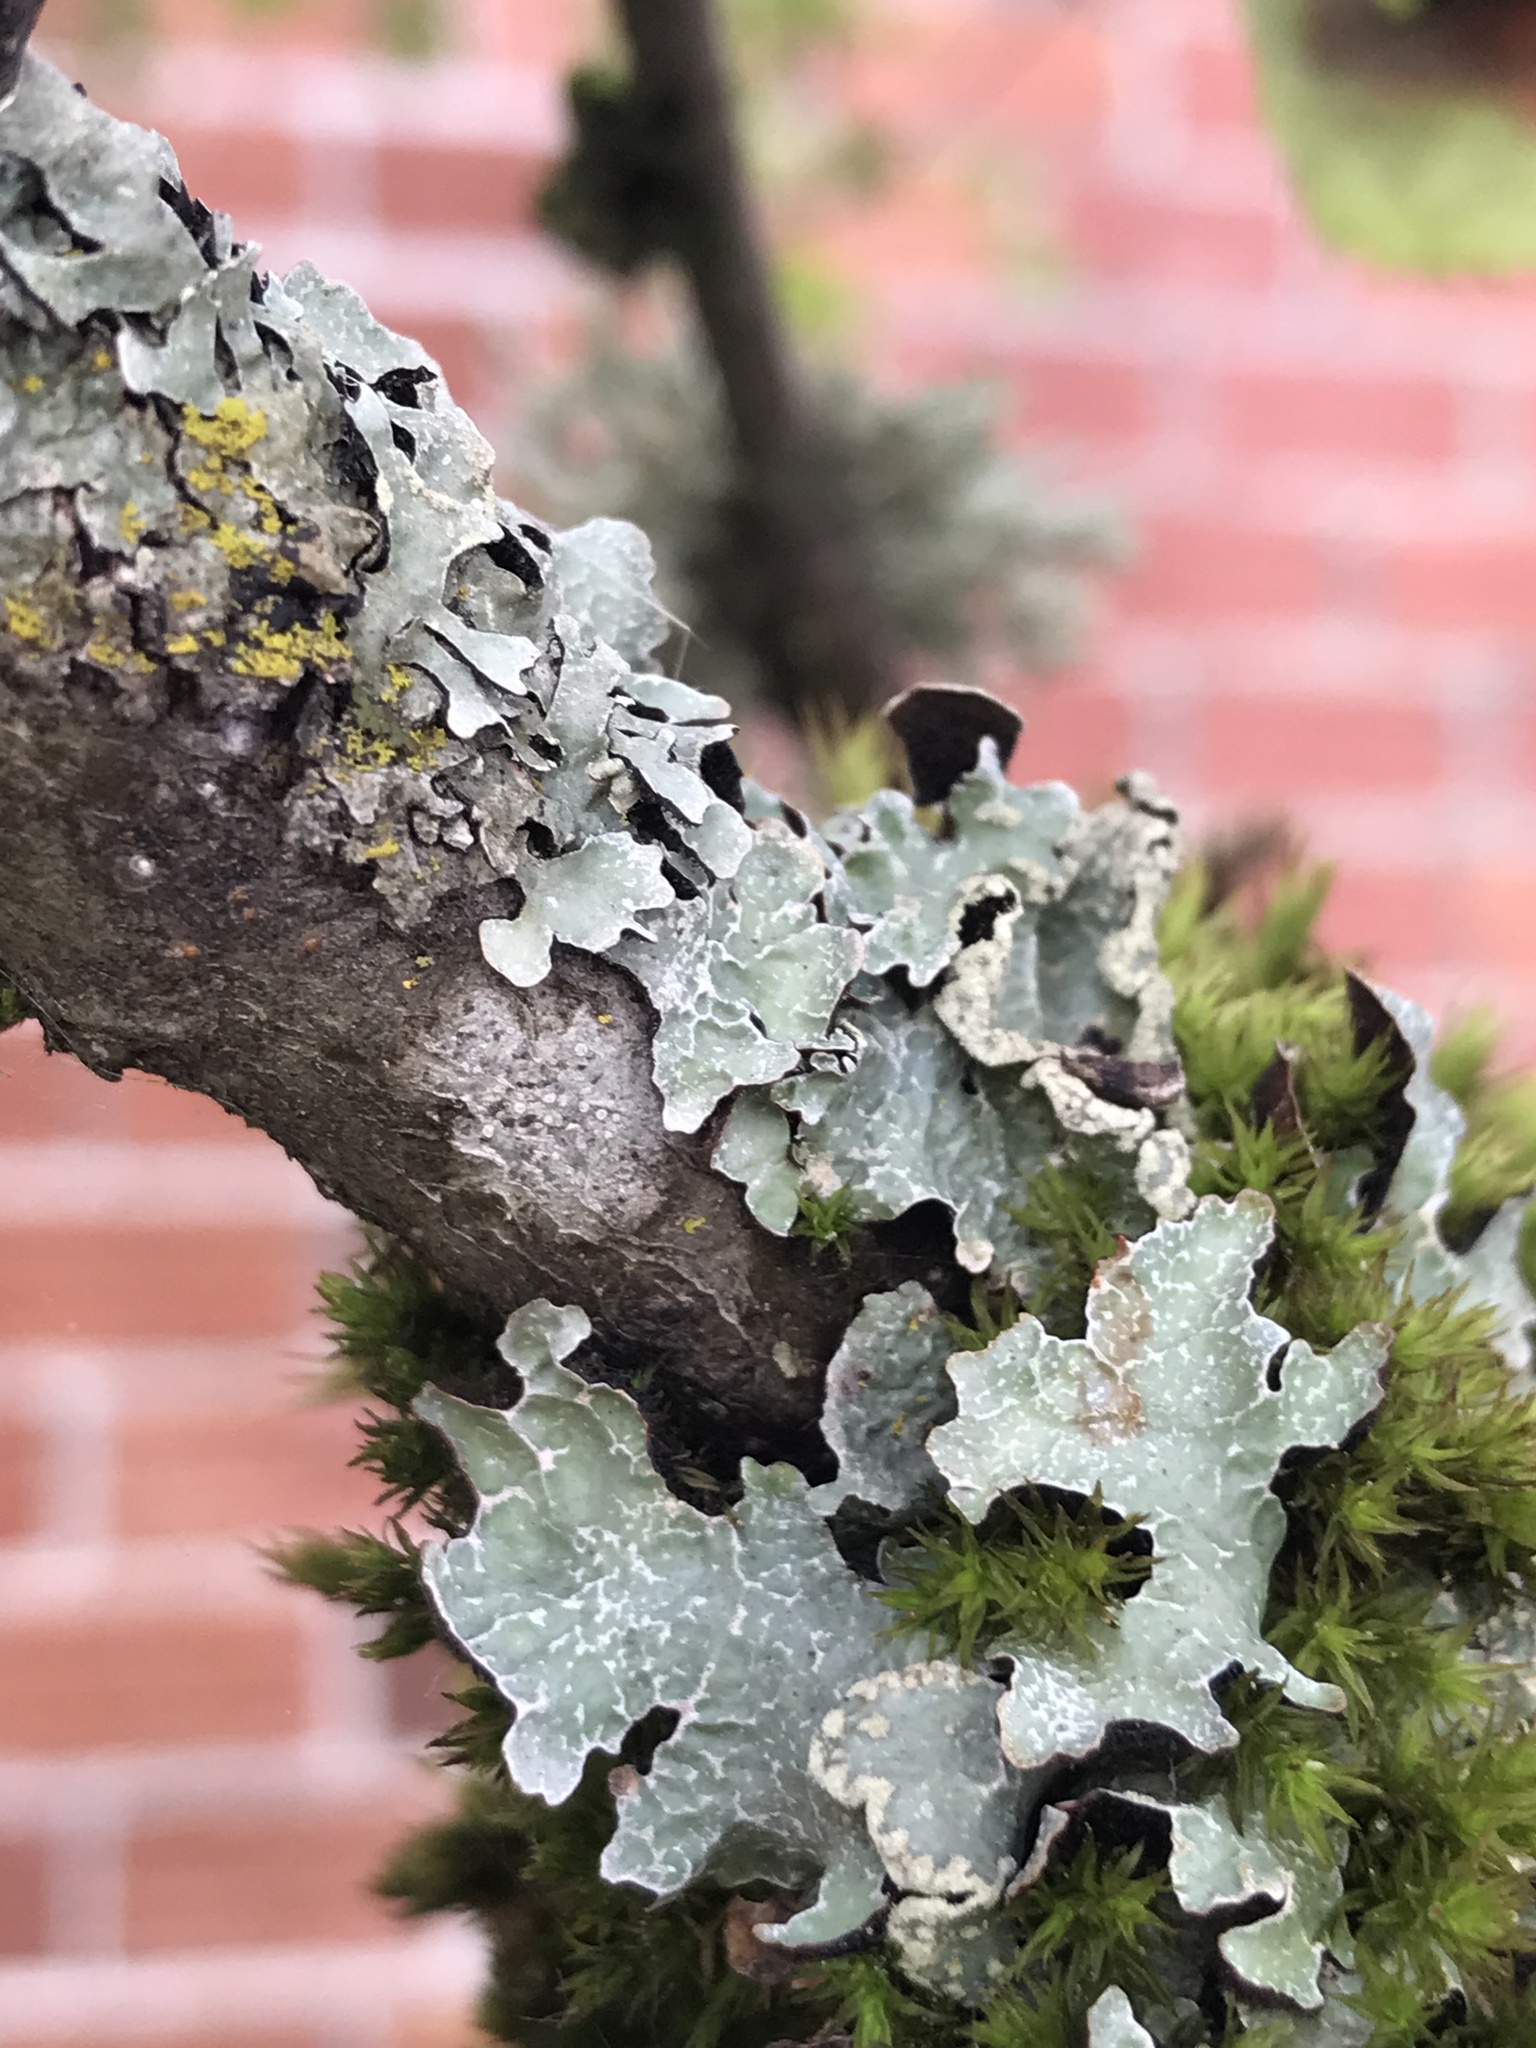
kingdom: Fungi
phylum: Ascomycota
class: Lecanoromycetes
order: Lecanorales
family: Parmeliaceae
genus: Parmelia
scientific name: Parmelia sulcata
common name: Netted shield lichen
